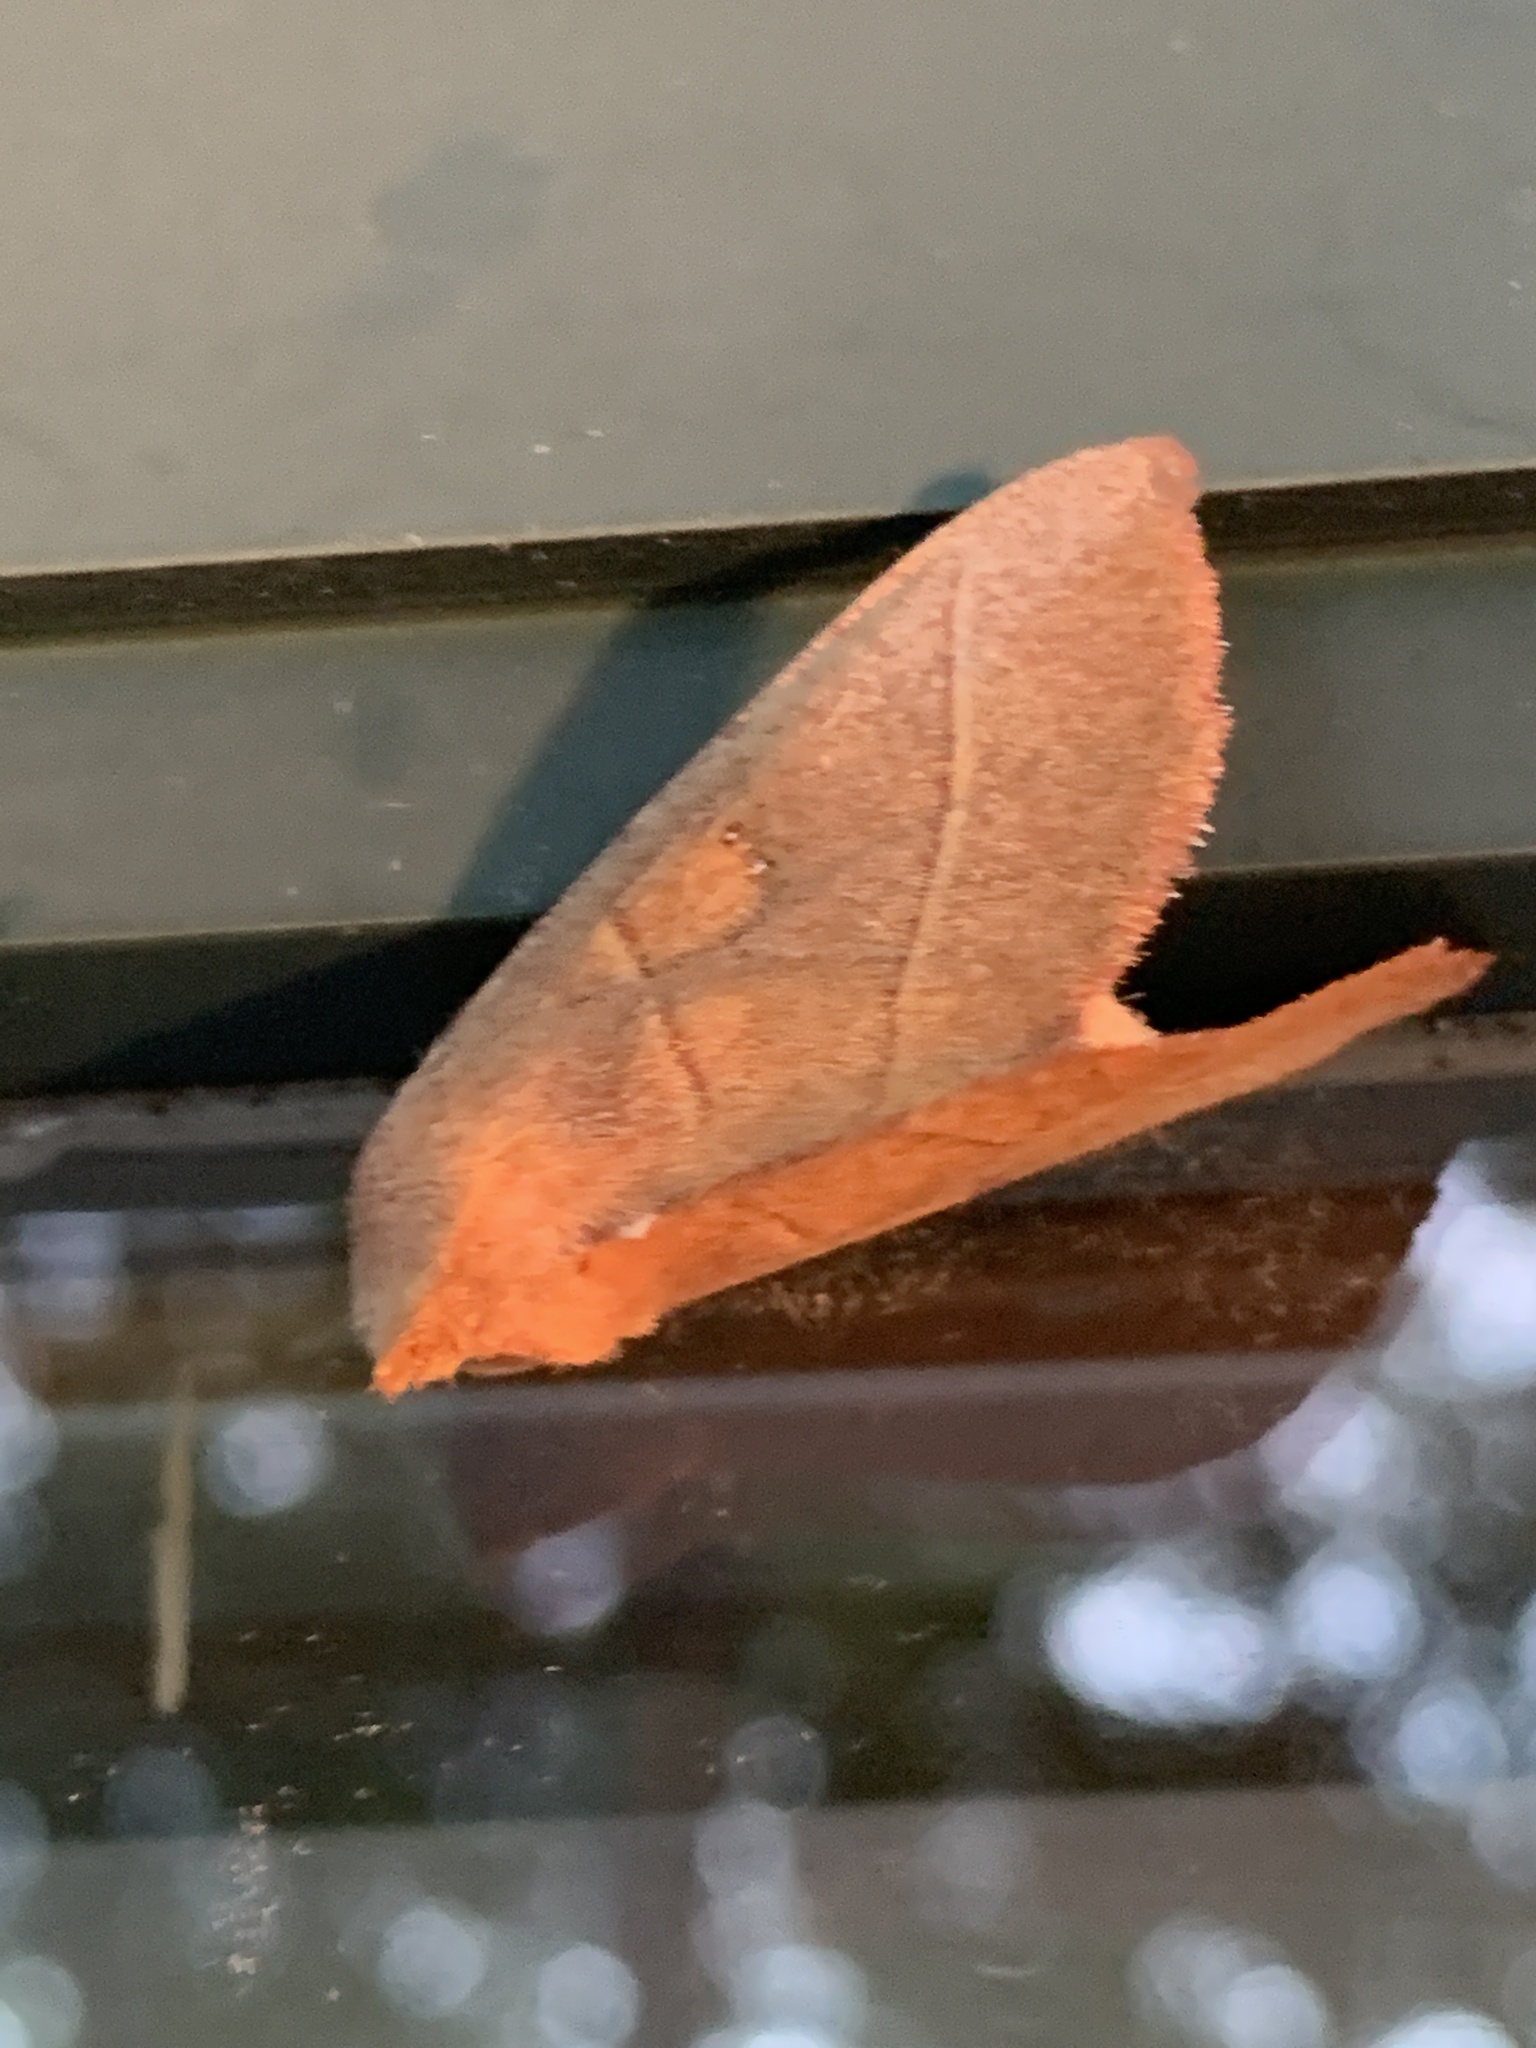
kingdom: Animalia
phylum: Arthropoda
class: Insecta
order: Lepidoptera
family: Notodontidae
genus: Nadata
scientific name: Nadata gibbosa
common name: White-dotted prominent
